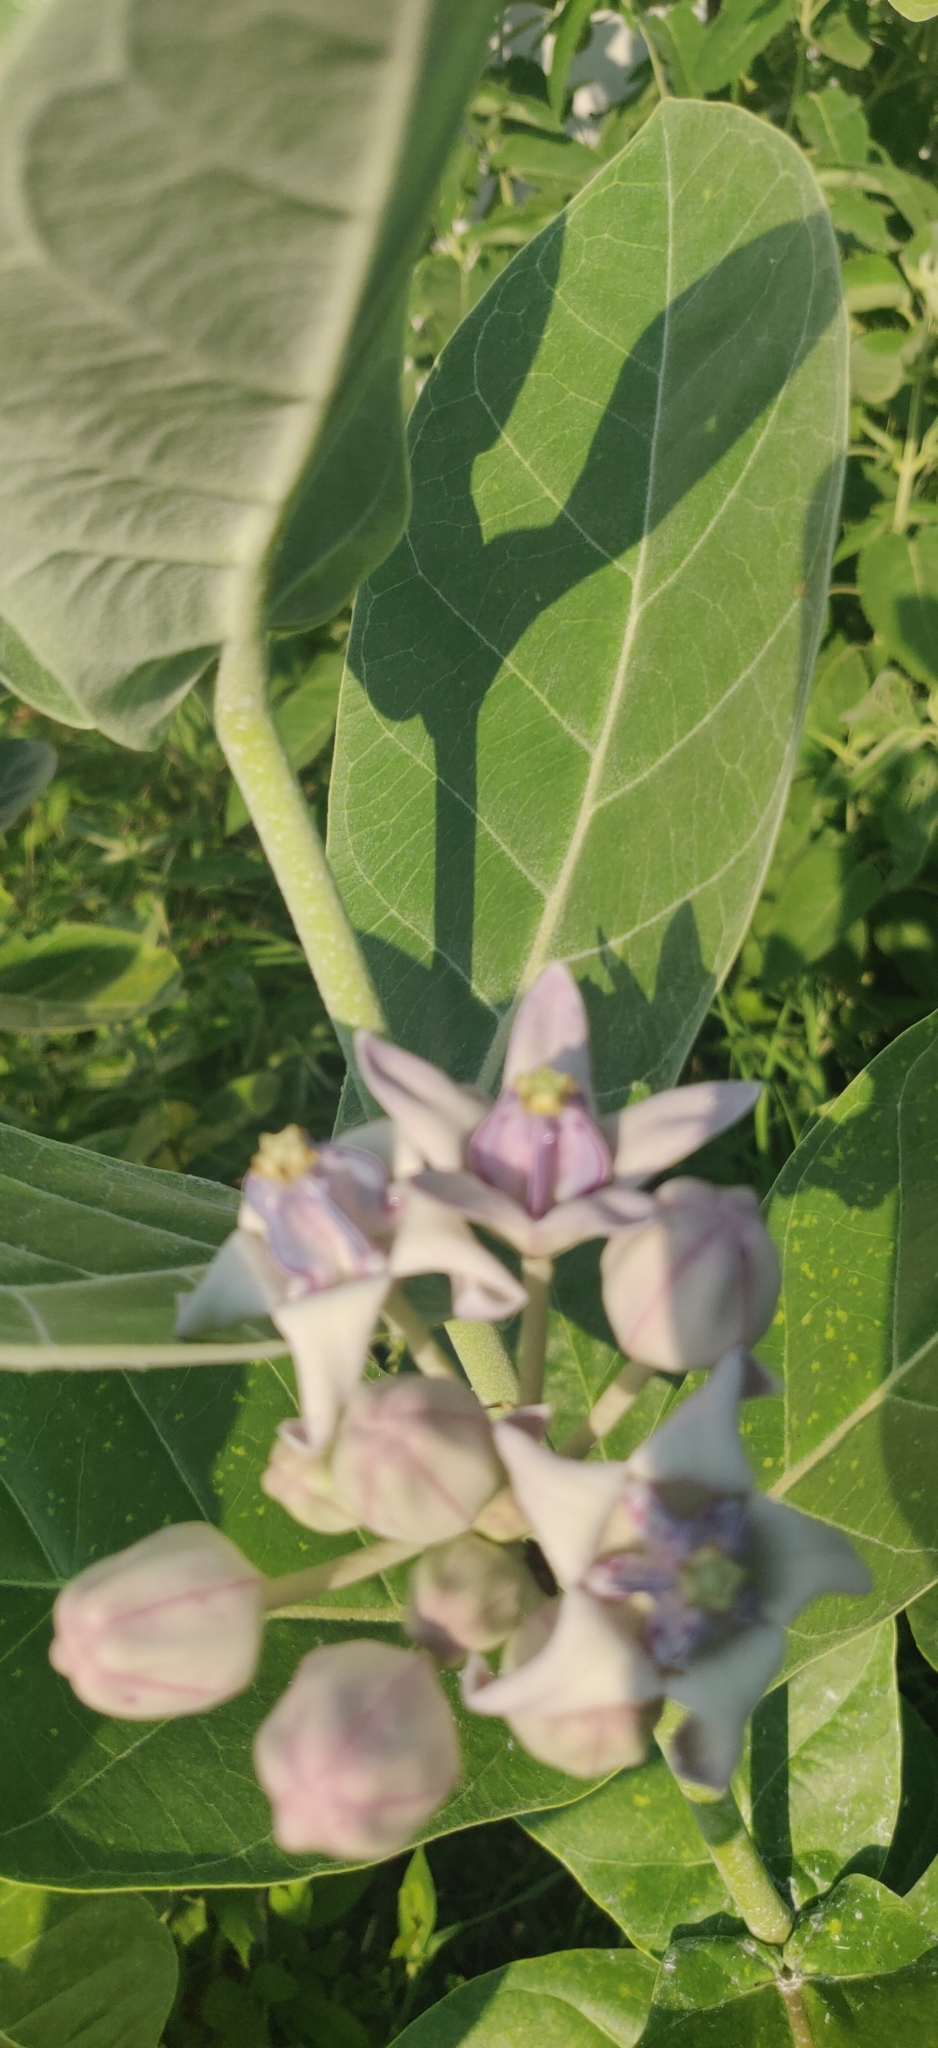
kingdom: Plantae
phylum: Tracheophyta
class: Magnoliopsida
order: Gentianales
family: Apocynaceae
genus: Calotropis
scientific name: Calotropis gigantea
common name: Crown flower
